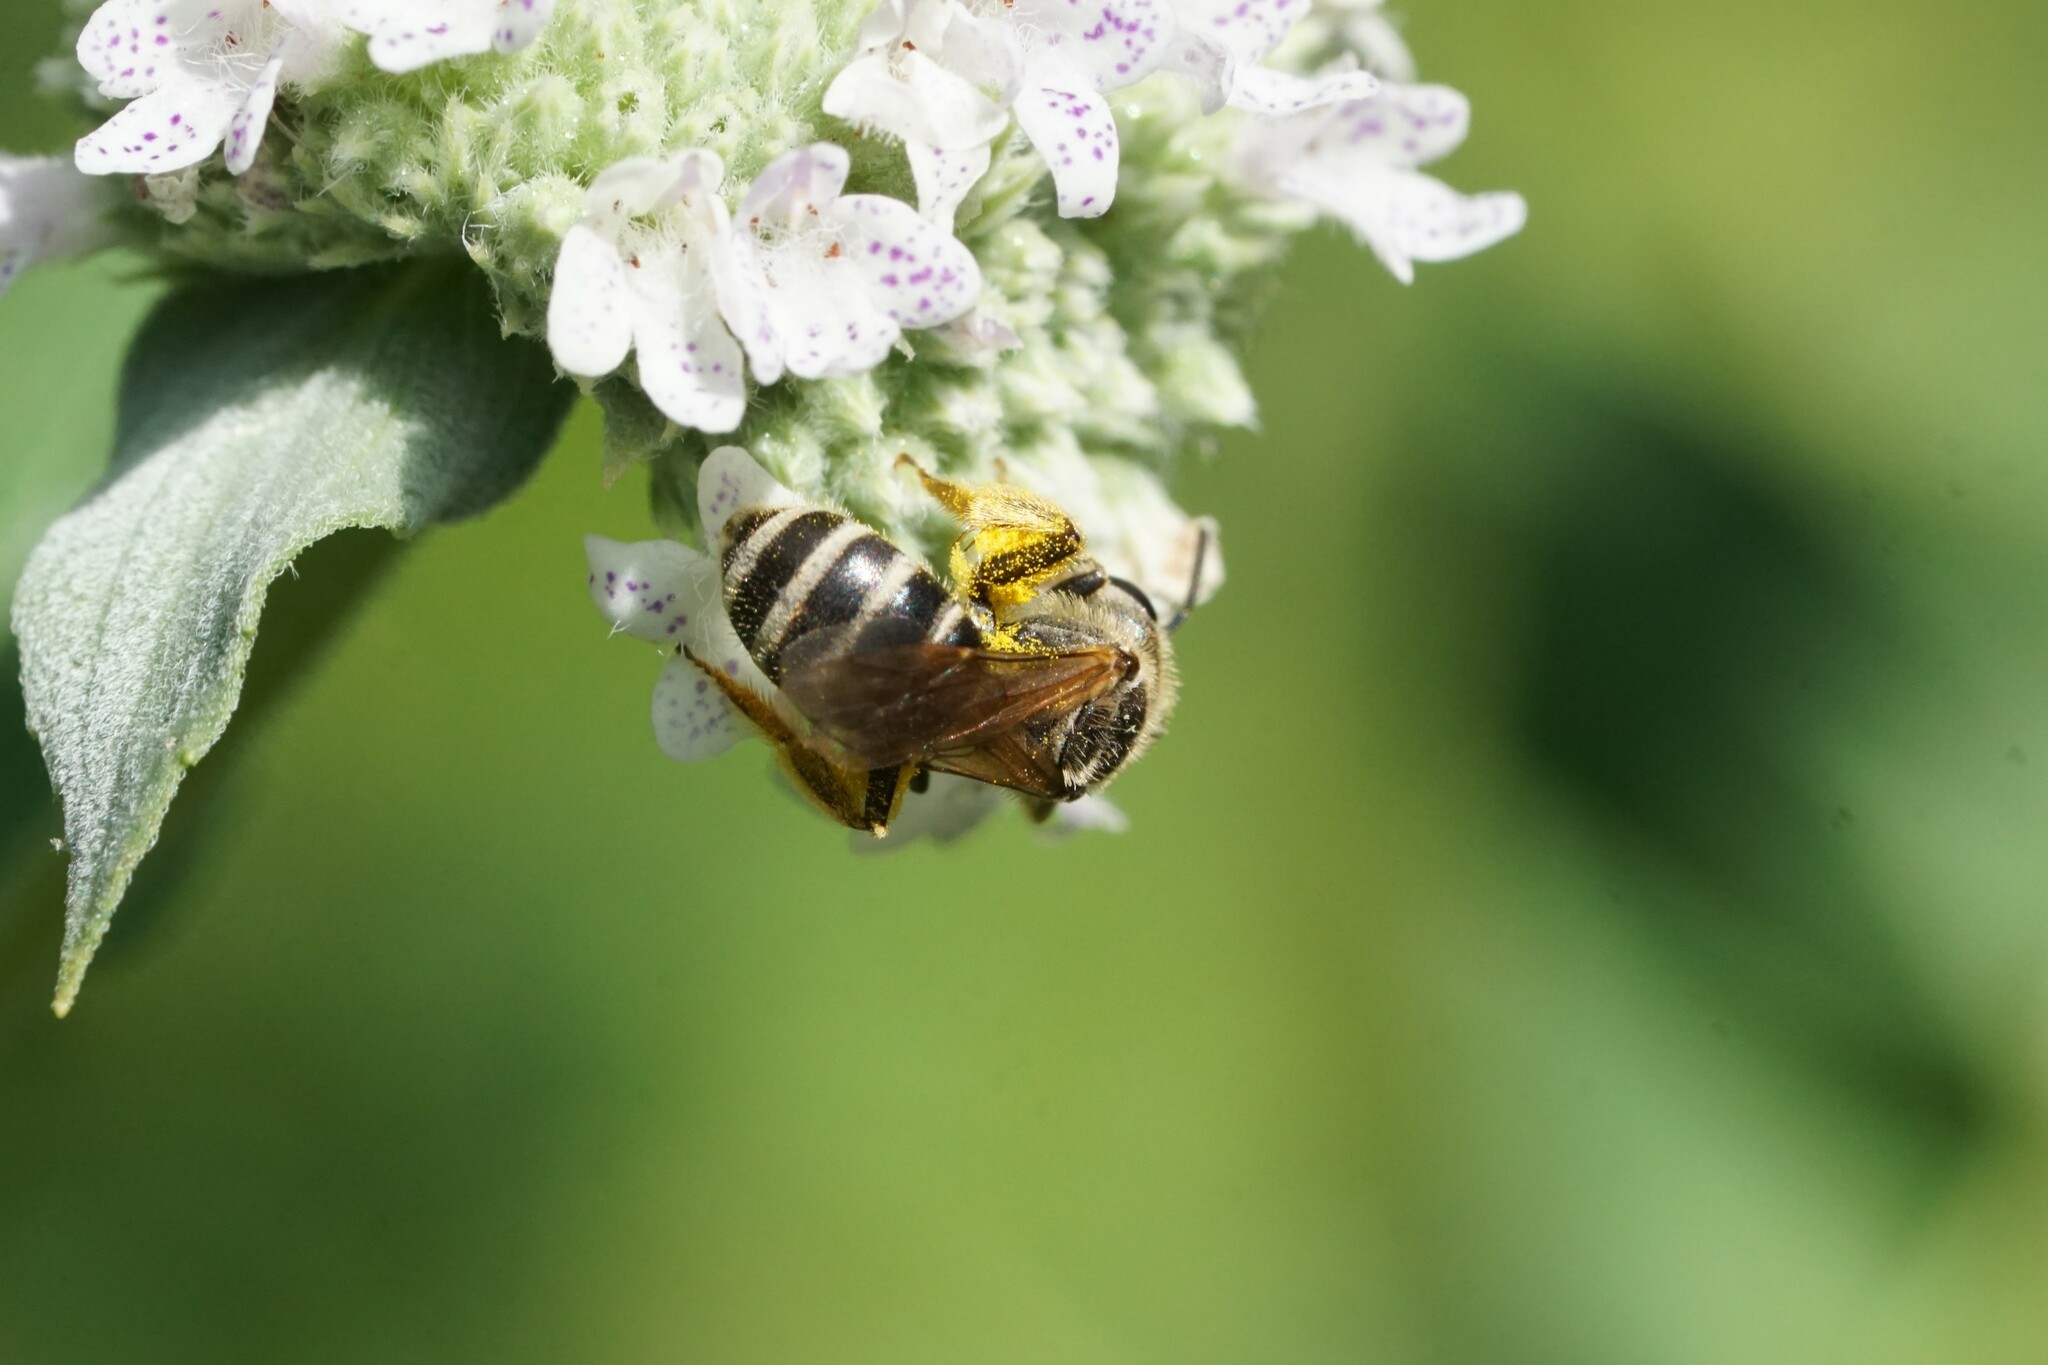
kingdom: Animalia
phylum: Arthropoda
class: Insecta
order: Hymenoptera
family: Halictidae
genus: Halictus
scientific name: Halictus ligatus
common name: Ligated furrow bee
